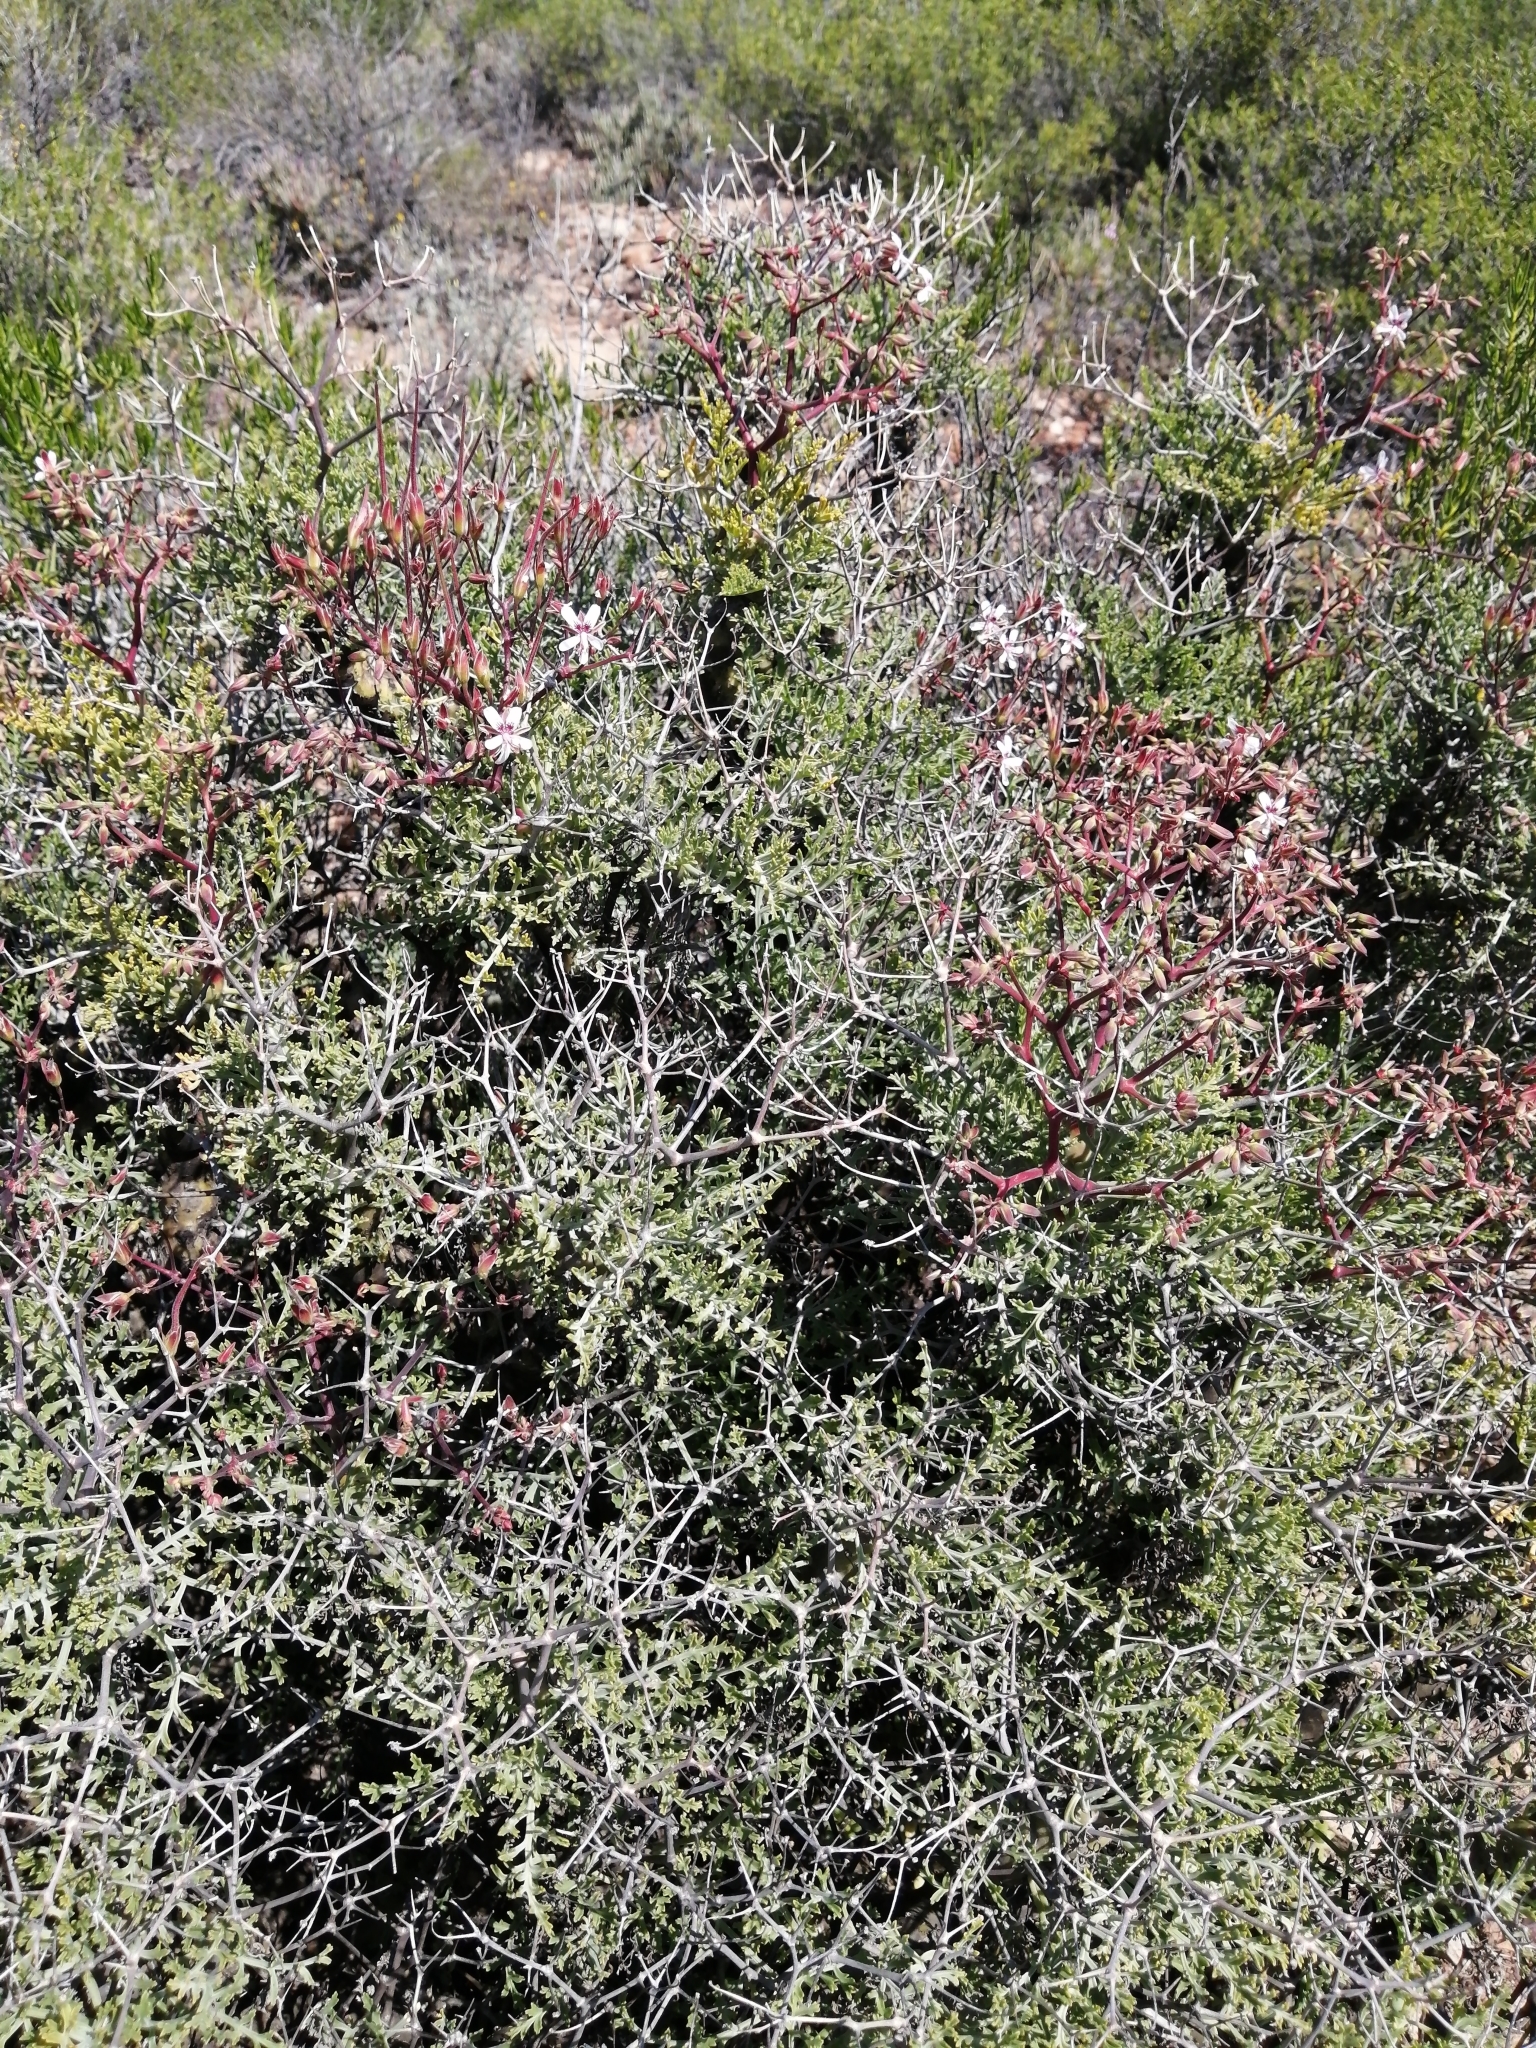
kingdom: Plantae
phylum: Tracheophyta
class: Magnoliopsida
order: Geraniales
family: Geraniaceae
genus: Pelargonium
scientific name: Pelargonium crithmifolium
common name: Samphire-leaf pelargonium
